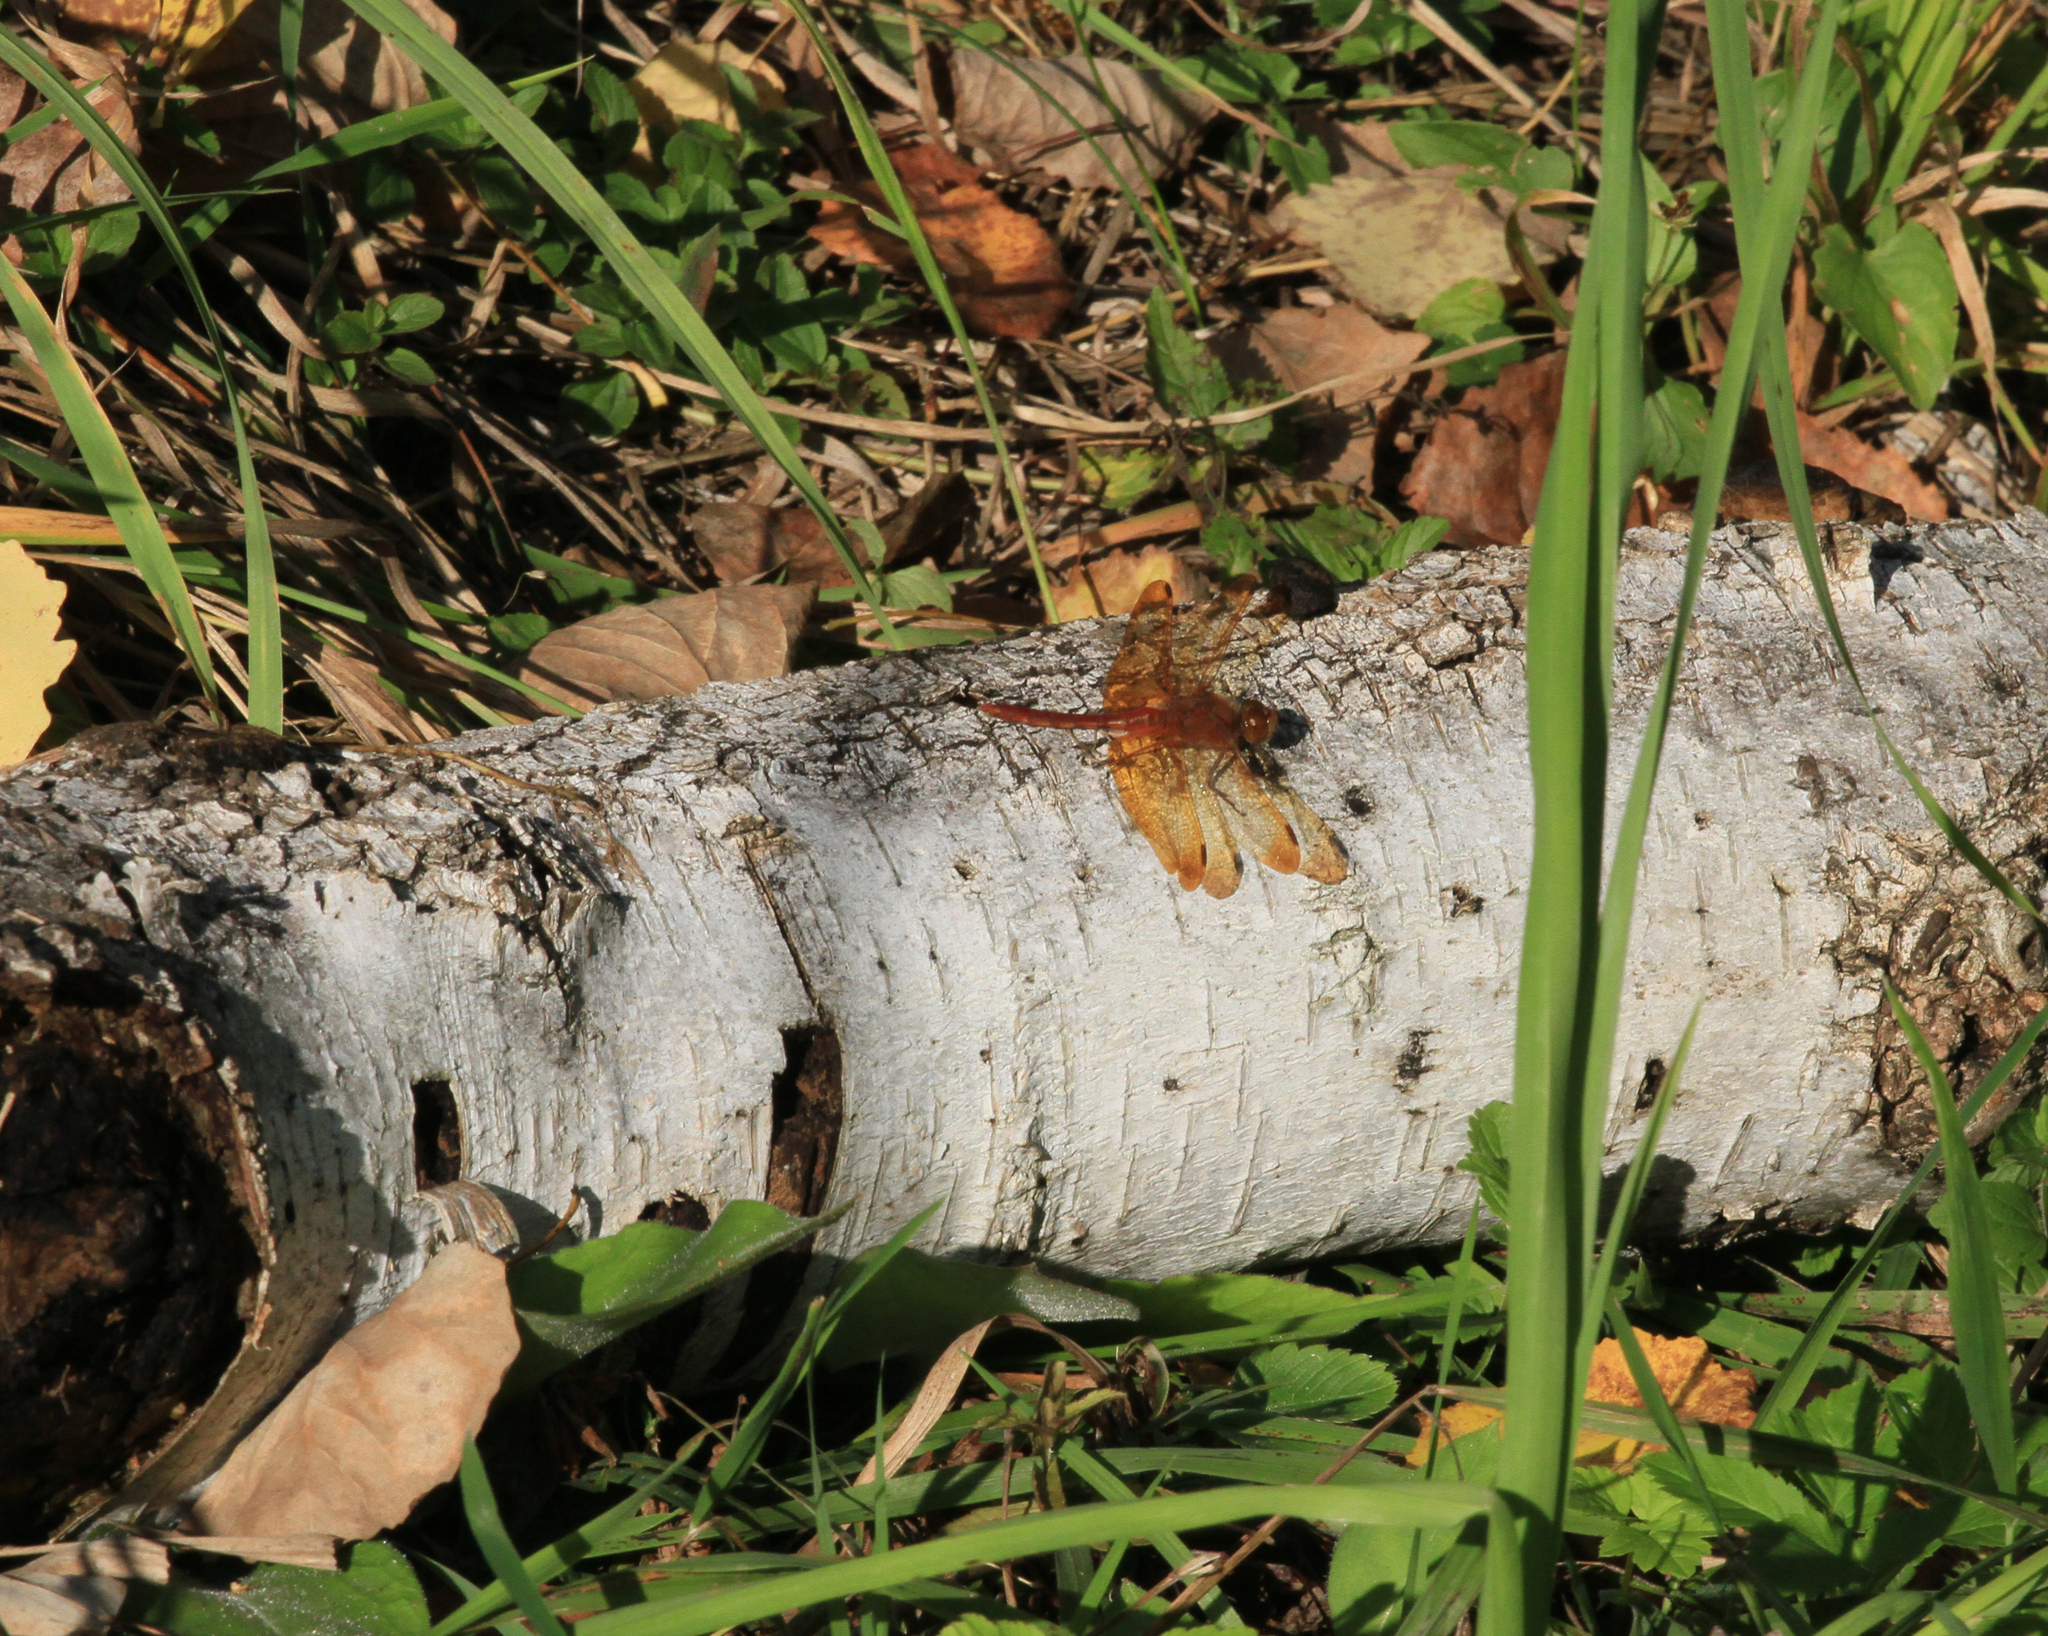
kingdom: Animalia
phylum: Arthropoda
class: Insecta
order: Odonata
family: Libellulidae
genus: Sympetrum
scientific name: Sympetrum croceolum
